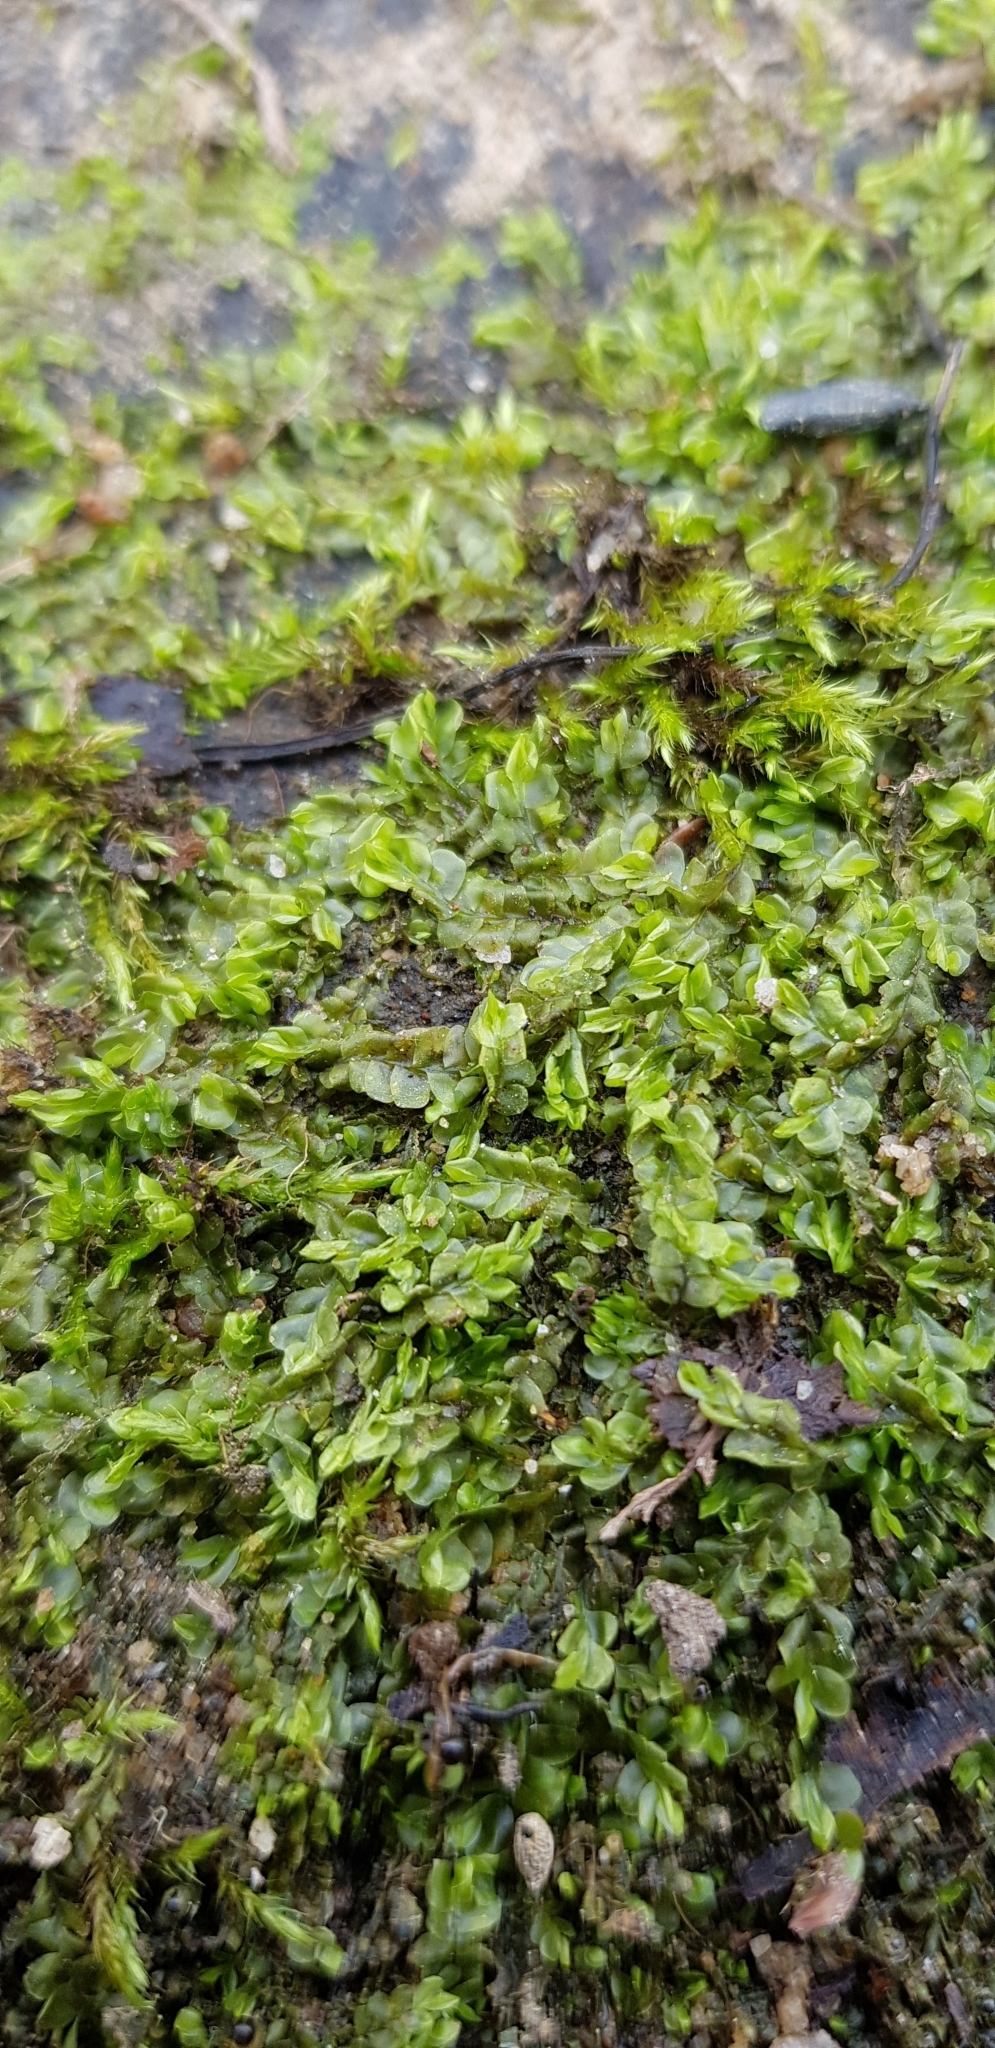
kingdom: Plantae
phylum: Marchantiophyta
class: Jungermanniopsida
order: Jungermanniales
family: Lophocoleaceae
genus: Chiloscyphus
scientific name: Chiloscyphus polyanthos
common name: Square-leaved crestwort
